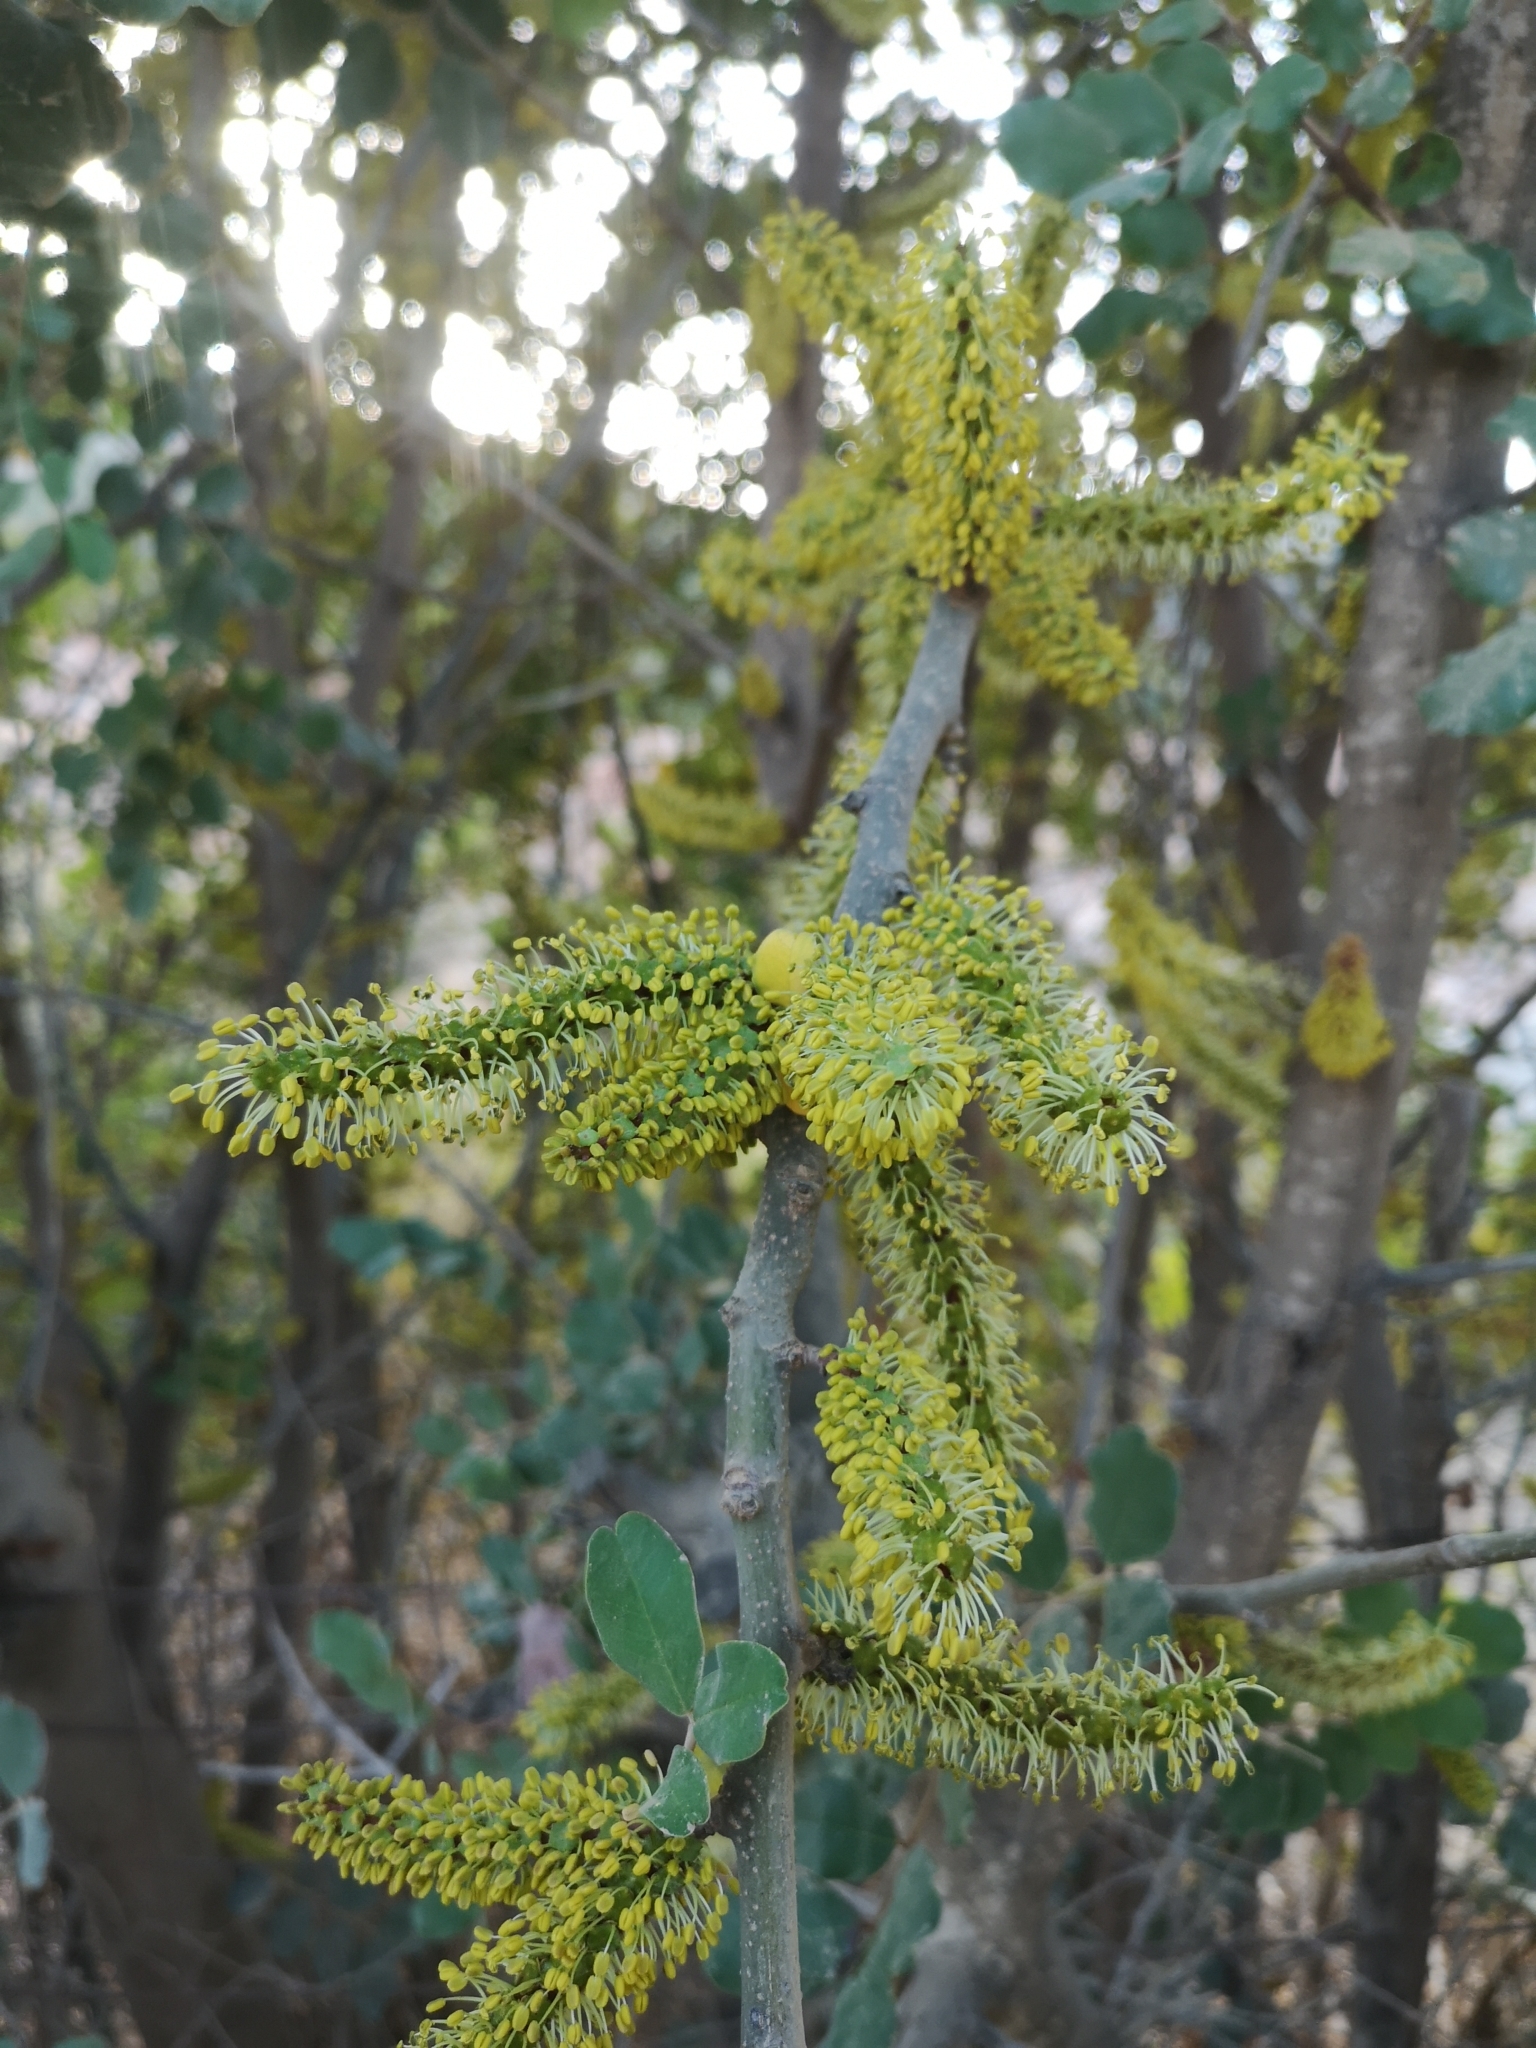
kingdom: Plantae
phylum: Tracheophyta
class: Magnoliopsida
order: Fabales
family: Fabaceae
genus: Ceratonia
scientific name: Ceratonia siliqua
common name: Carob
